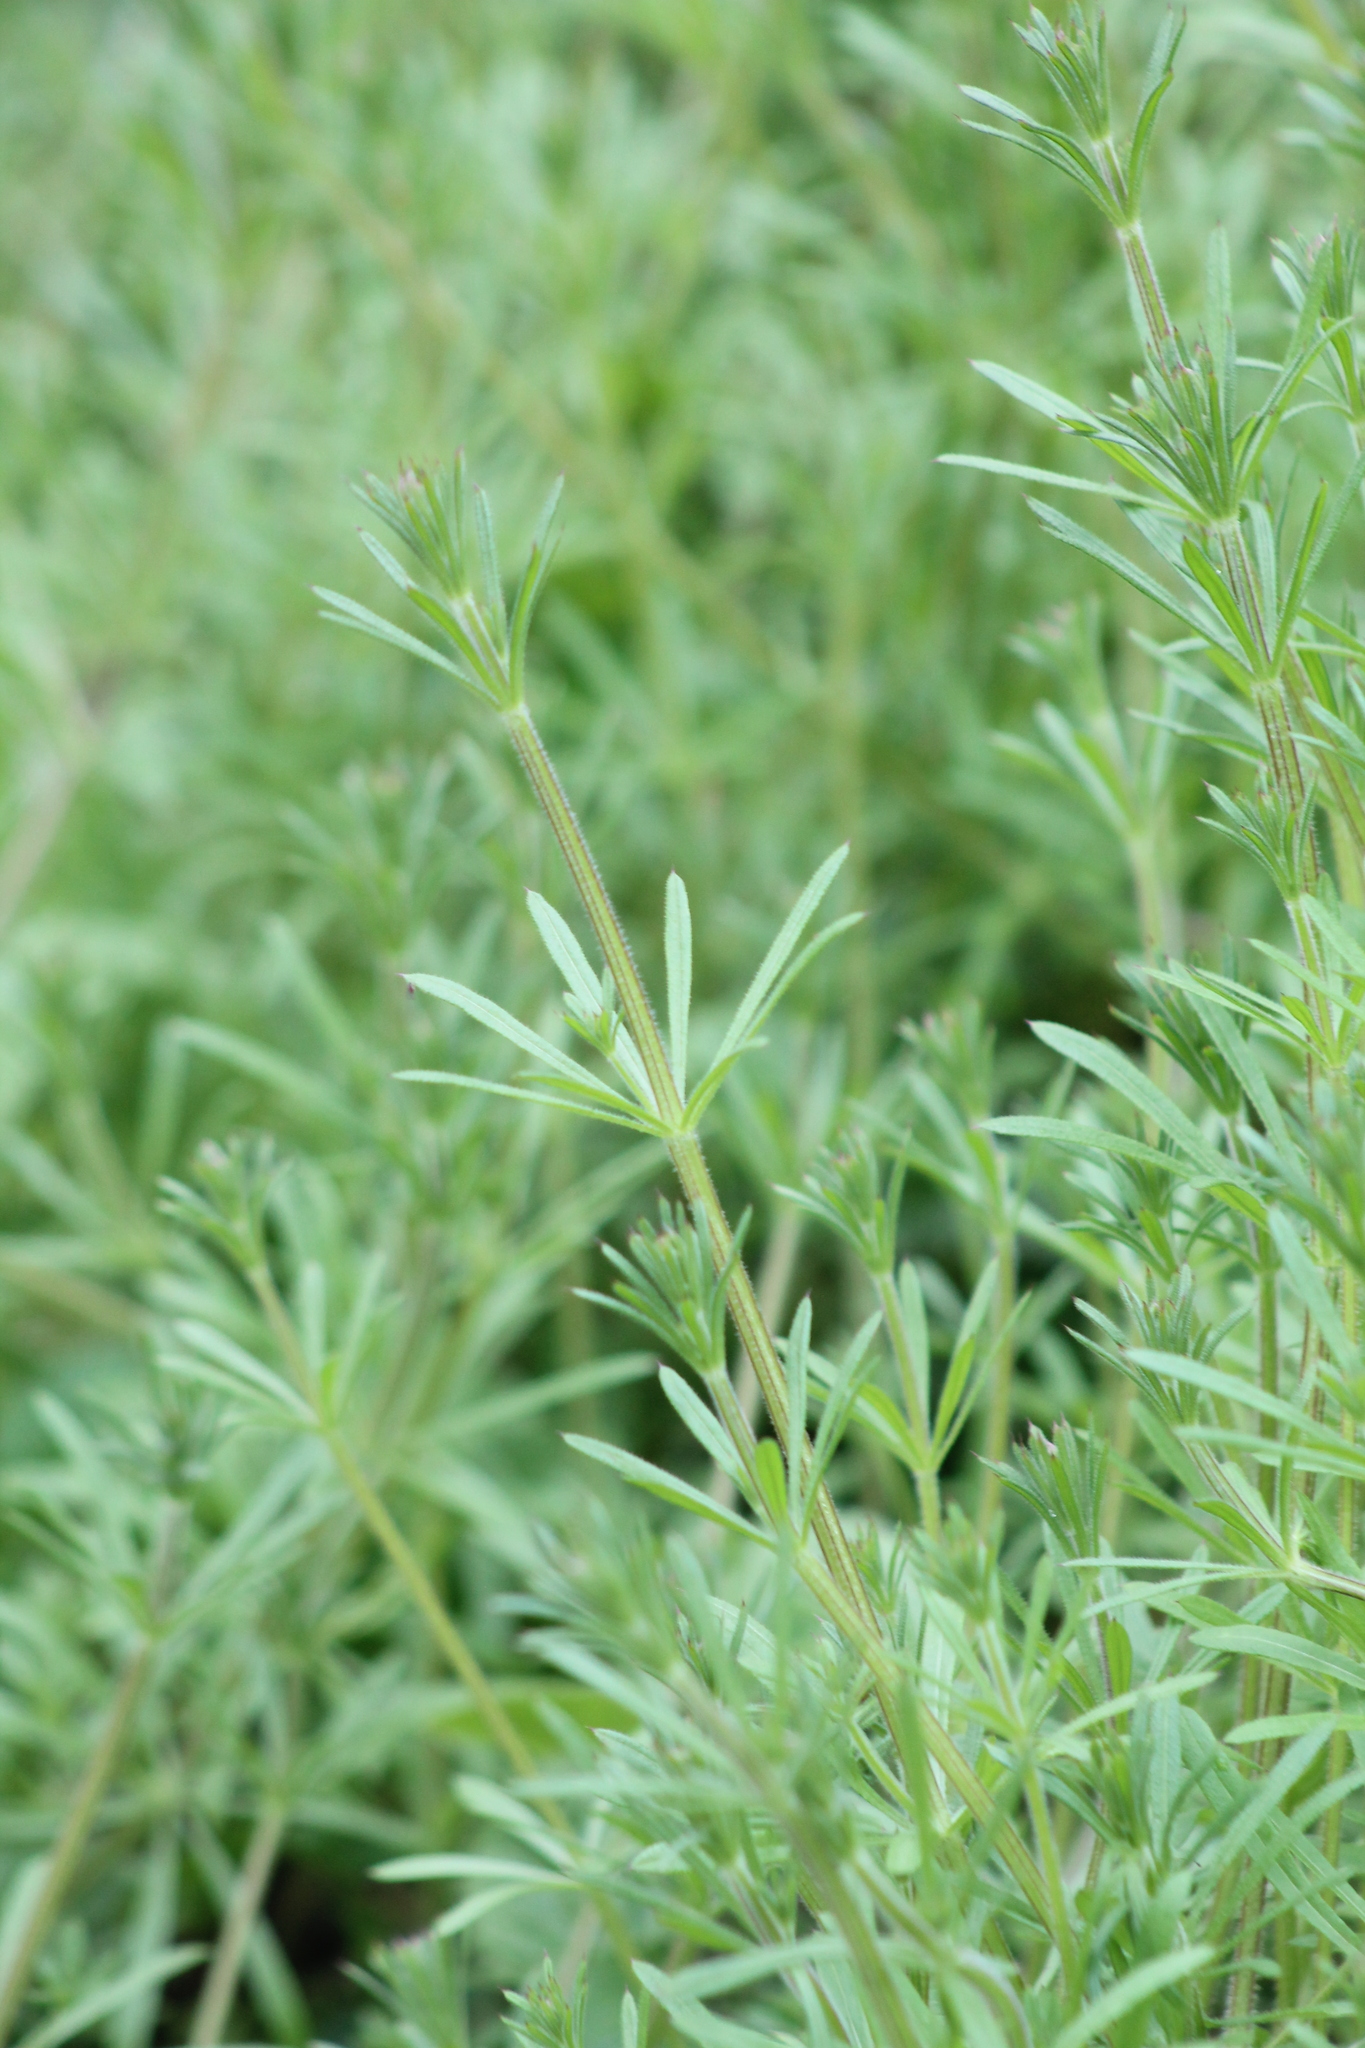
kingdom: Plantae
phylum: Tracheophyta
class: Magnoliopsida
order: Gentianales
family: Rubiaceae
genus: Galium
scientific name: Galium aparine
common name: Cleavers
